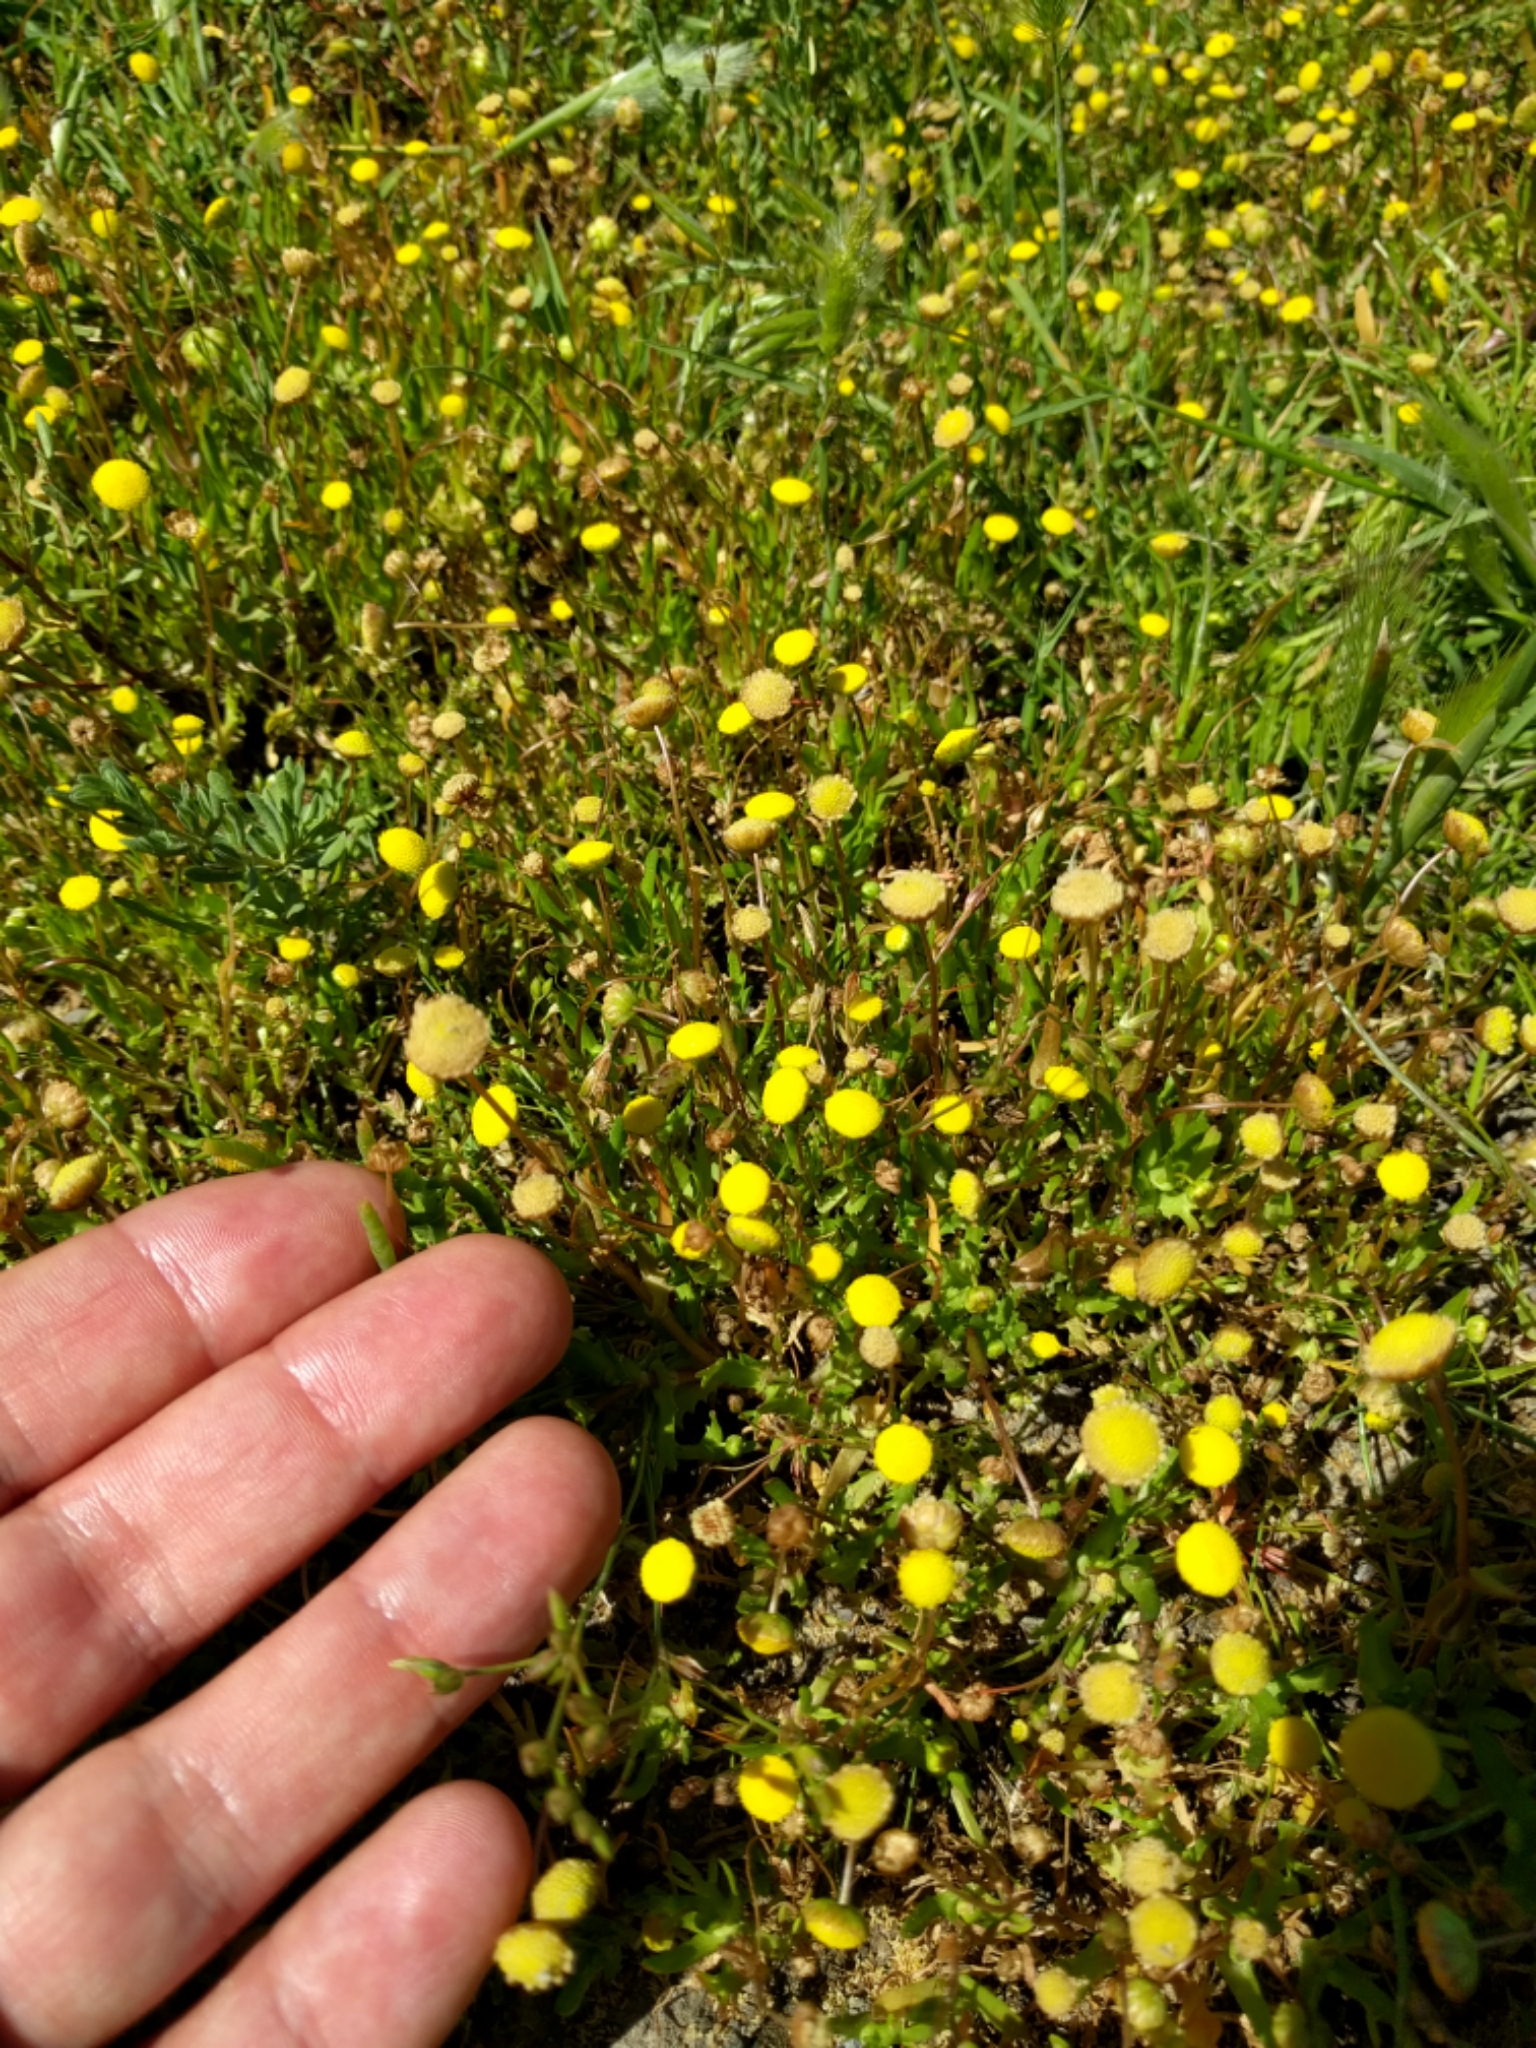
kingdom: Plantae
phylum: Tracheophyta
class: Magnoliopsida
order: Asterales
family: Asteraceae
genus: Cotula
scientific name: Cotula coronopifolia
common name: Buttonweed
